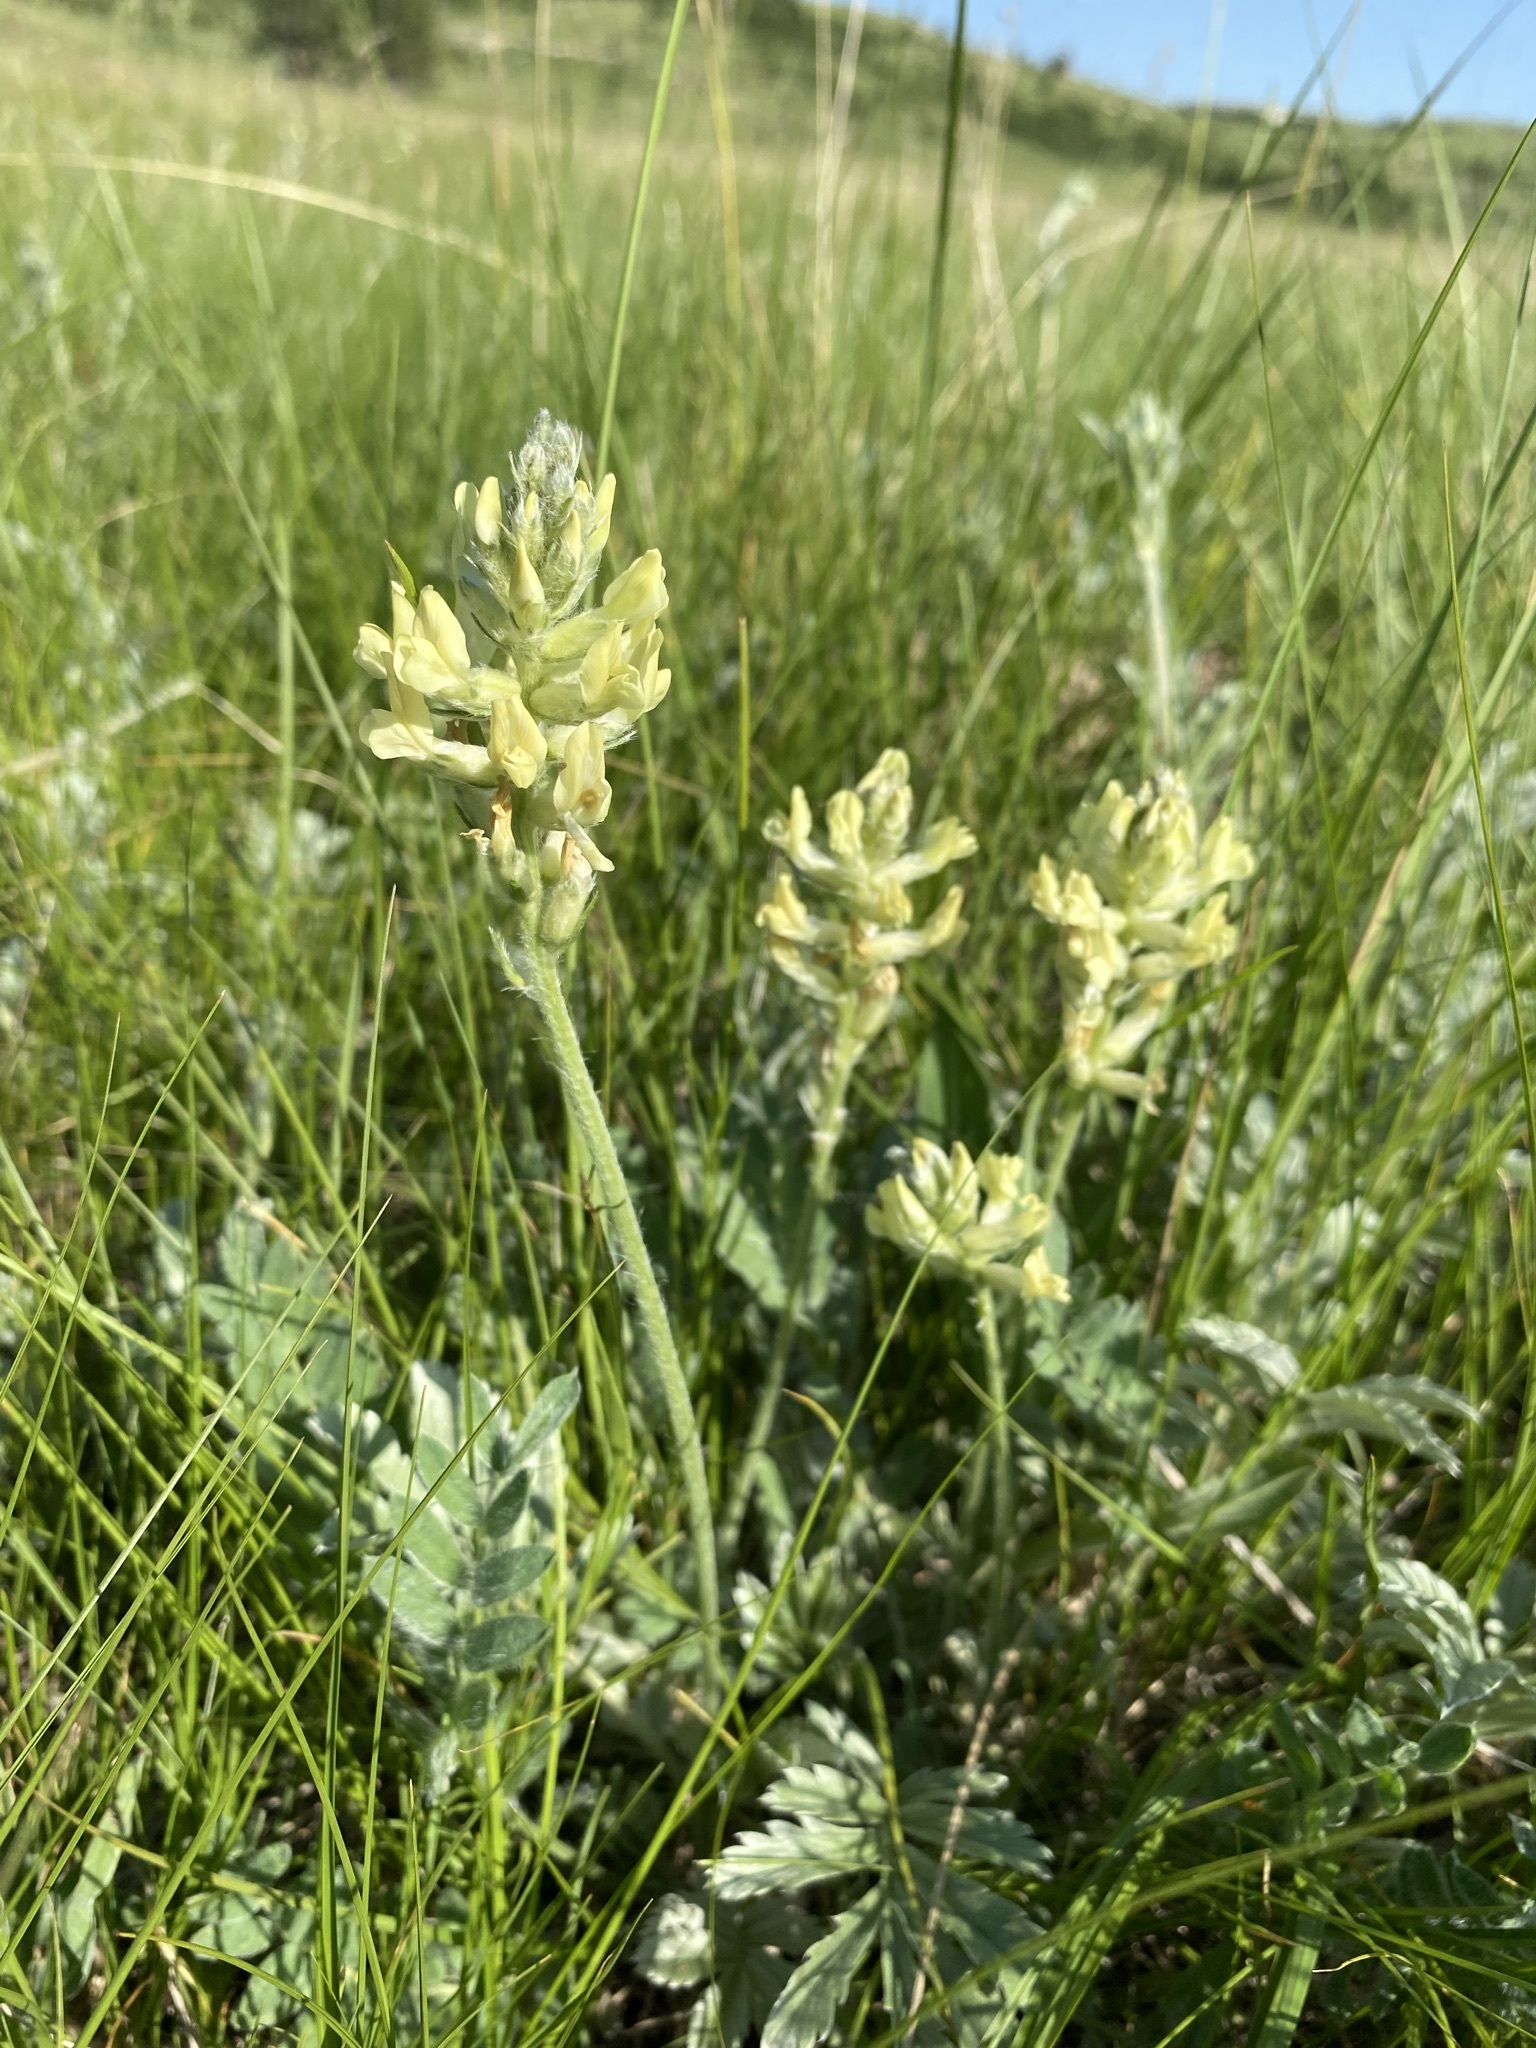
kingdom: Plantae
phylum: Tracheophyta
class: Magnoliopsida
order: Fabales
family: Fabaceae
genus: Oxytropis
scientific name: Oxytropis campestris
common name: Field locoweed
